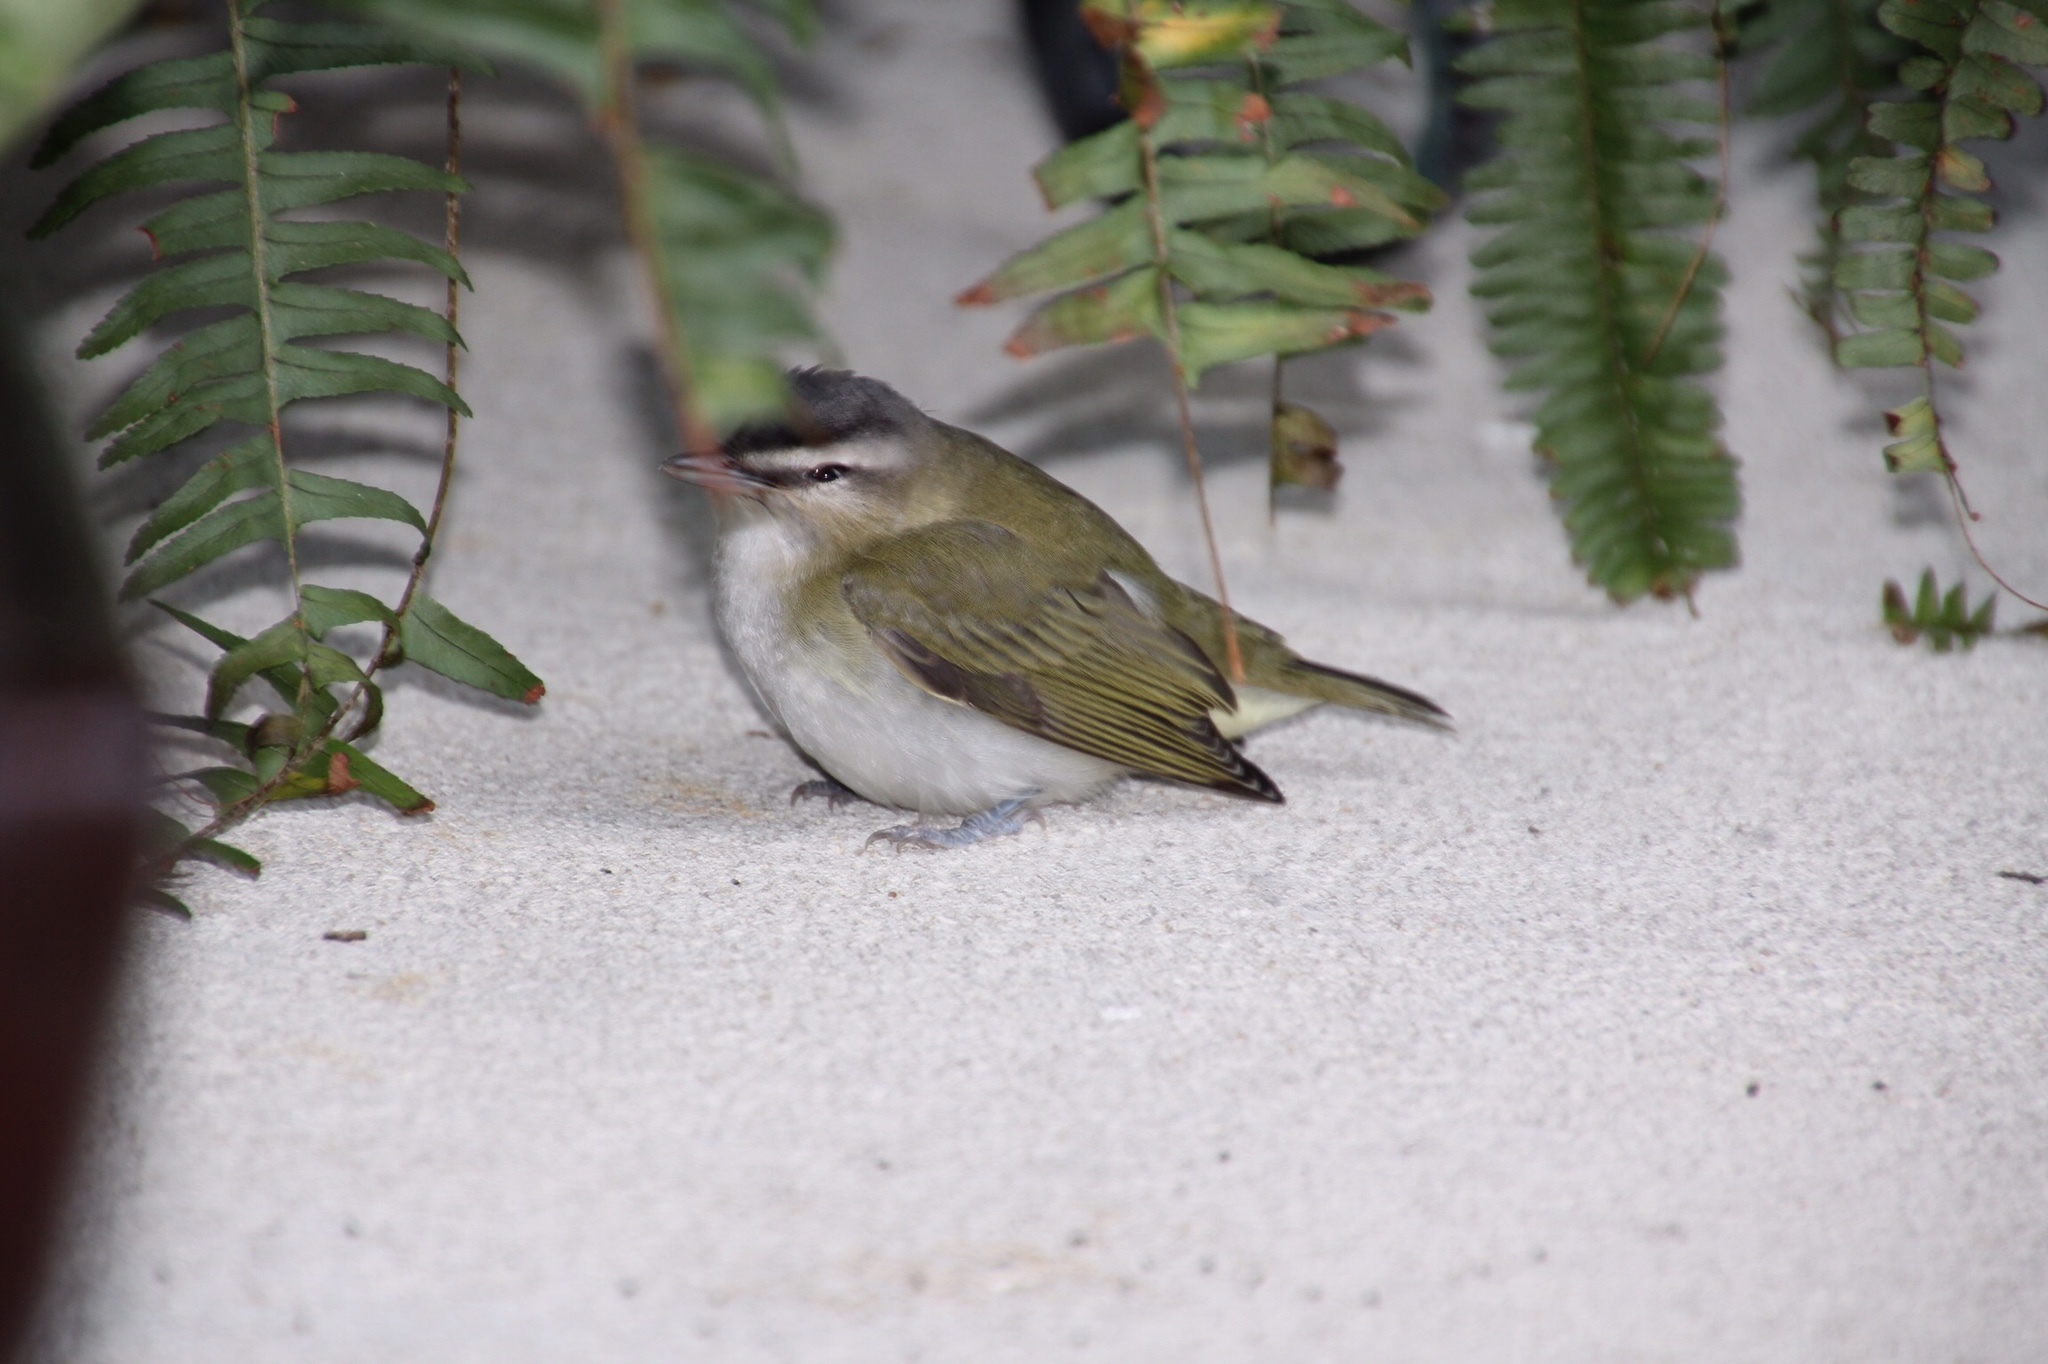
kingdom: Animalia
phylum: Chordata
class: Aves
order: Passeriformes
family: Vireonidae
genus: Vireo
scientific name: Vireo olivaceus
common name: Red-eyed vireo
